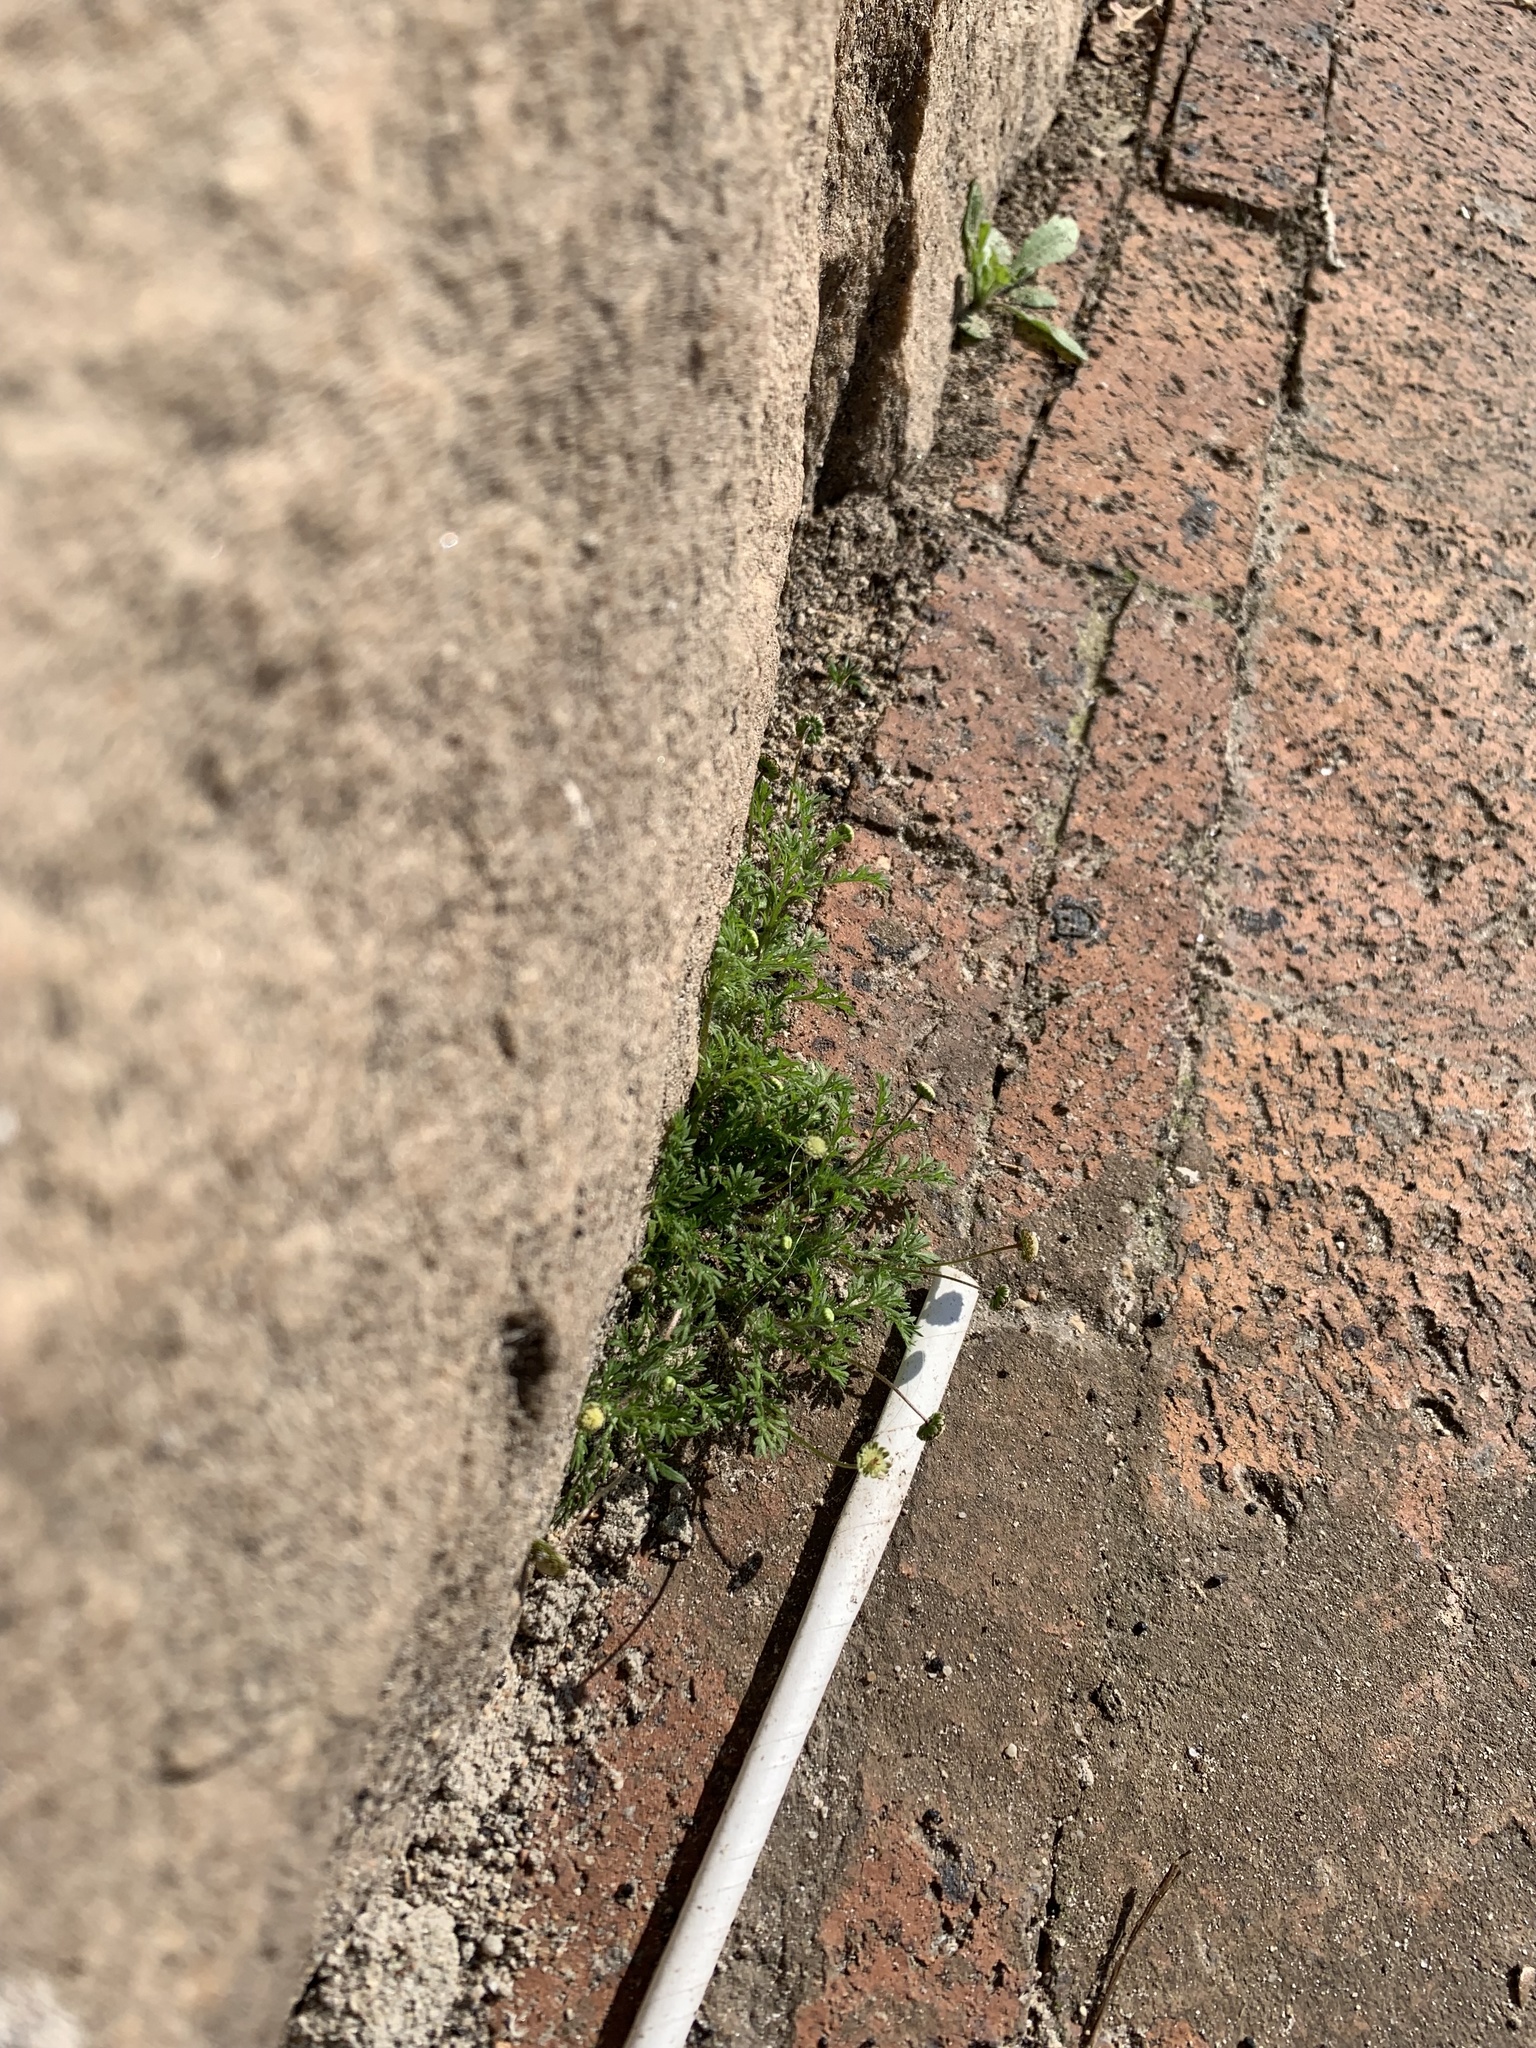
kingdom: Plantae
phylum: Tracheophyta
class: Magnoliopsida
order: Asterales
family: Asteraceae
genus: Cotula
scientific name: Cotula australis
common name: Australian waterbuttons
